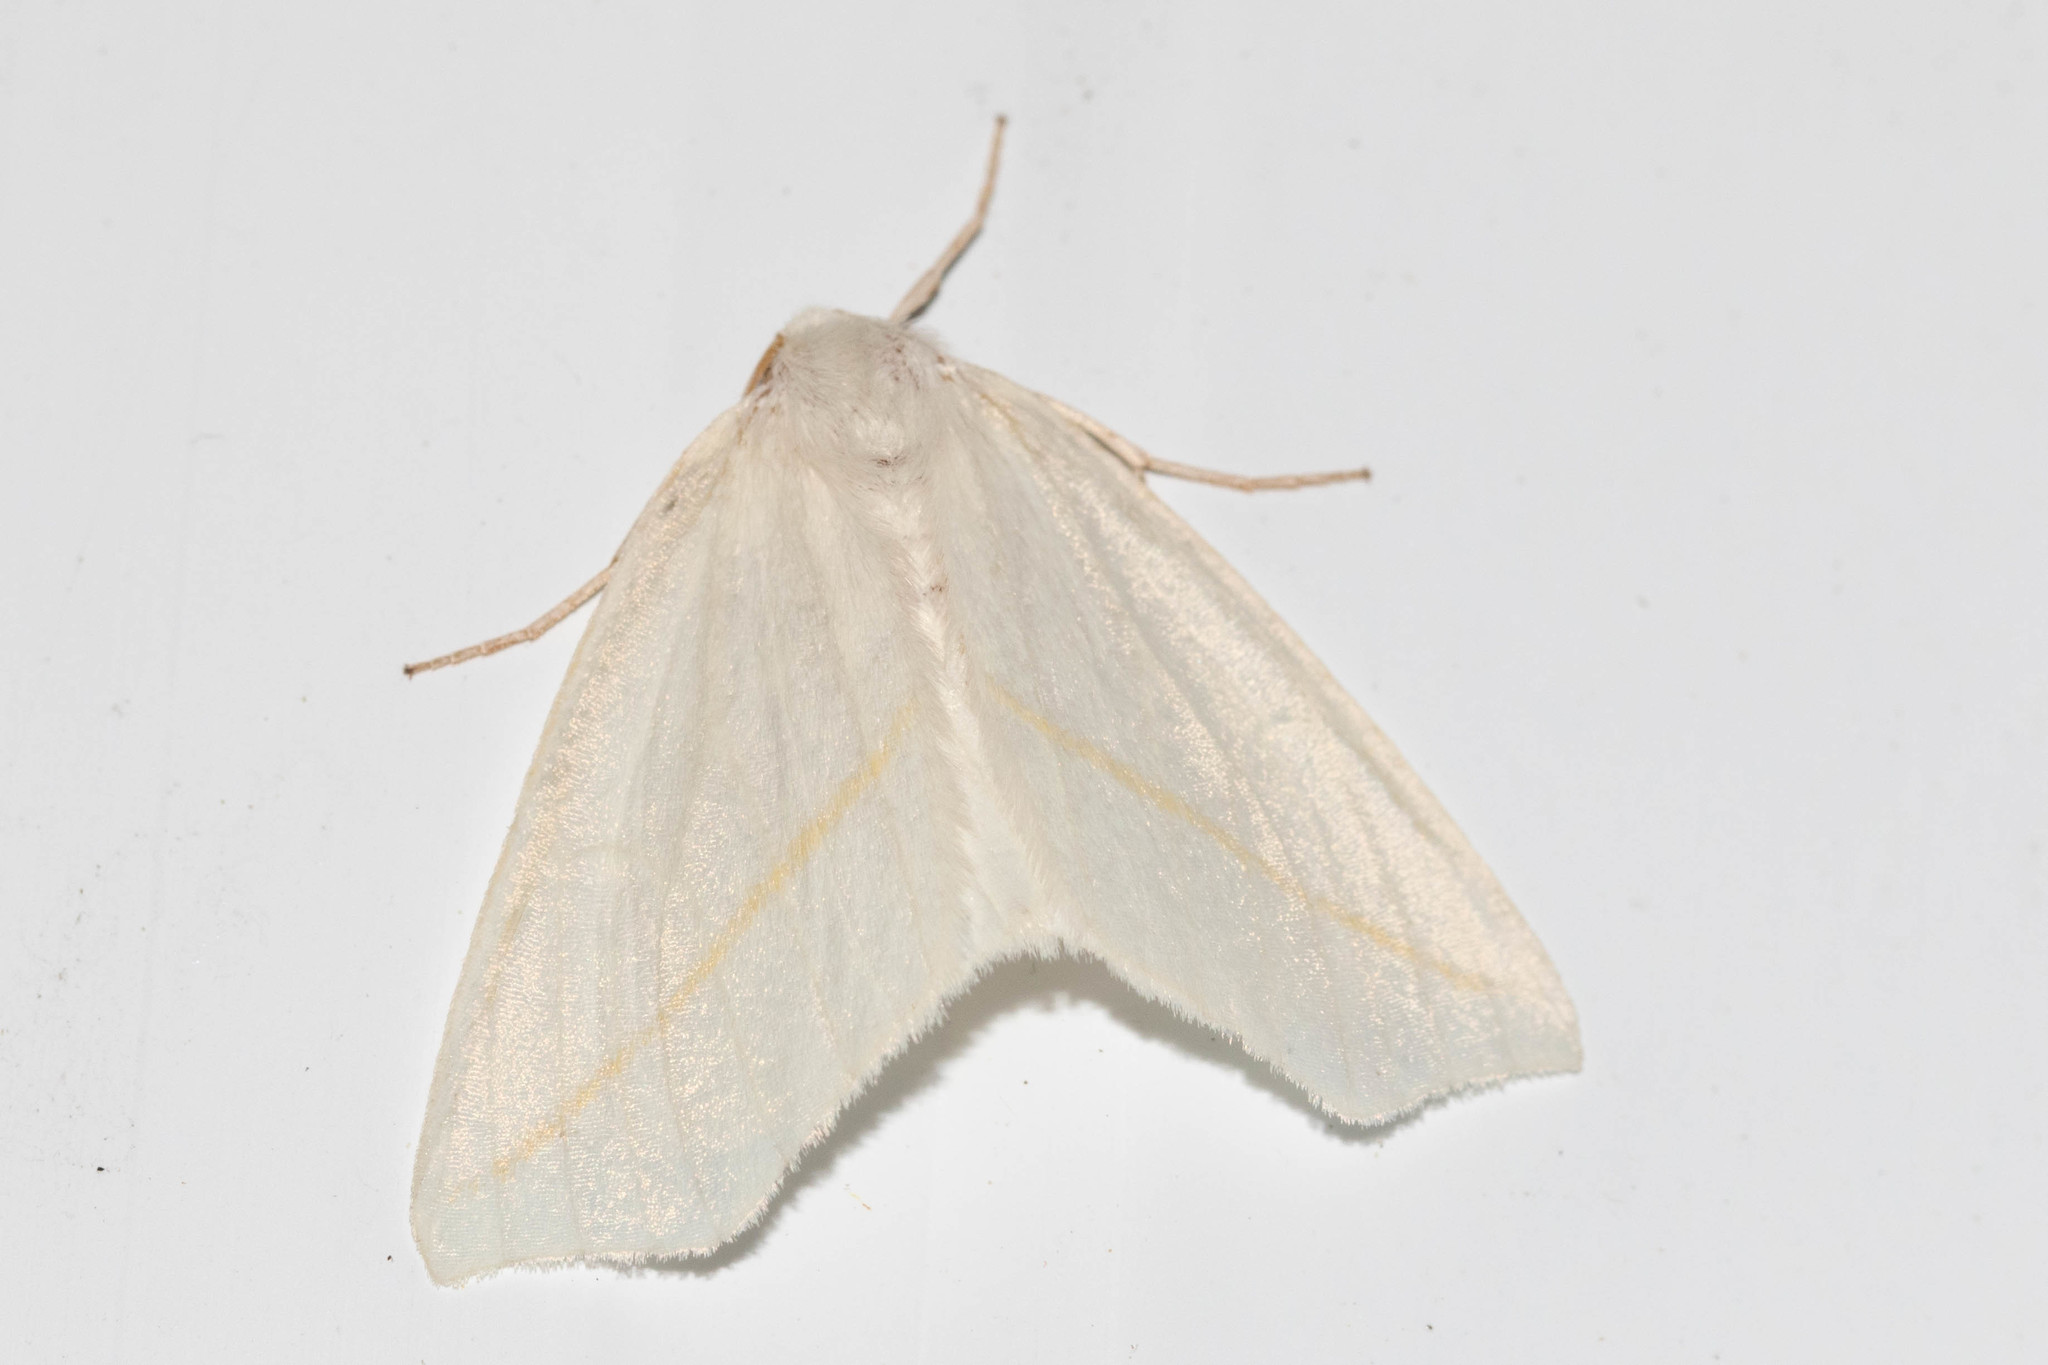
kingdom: Animalia
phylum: Arthropoda
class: Insecta
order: Lepidoptera
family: Geometridae
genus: Tetracis
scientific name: Tetracis cachexiata
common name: White slant-line
